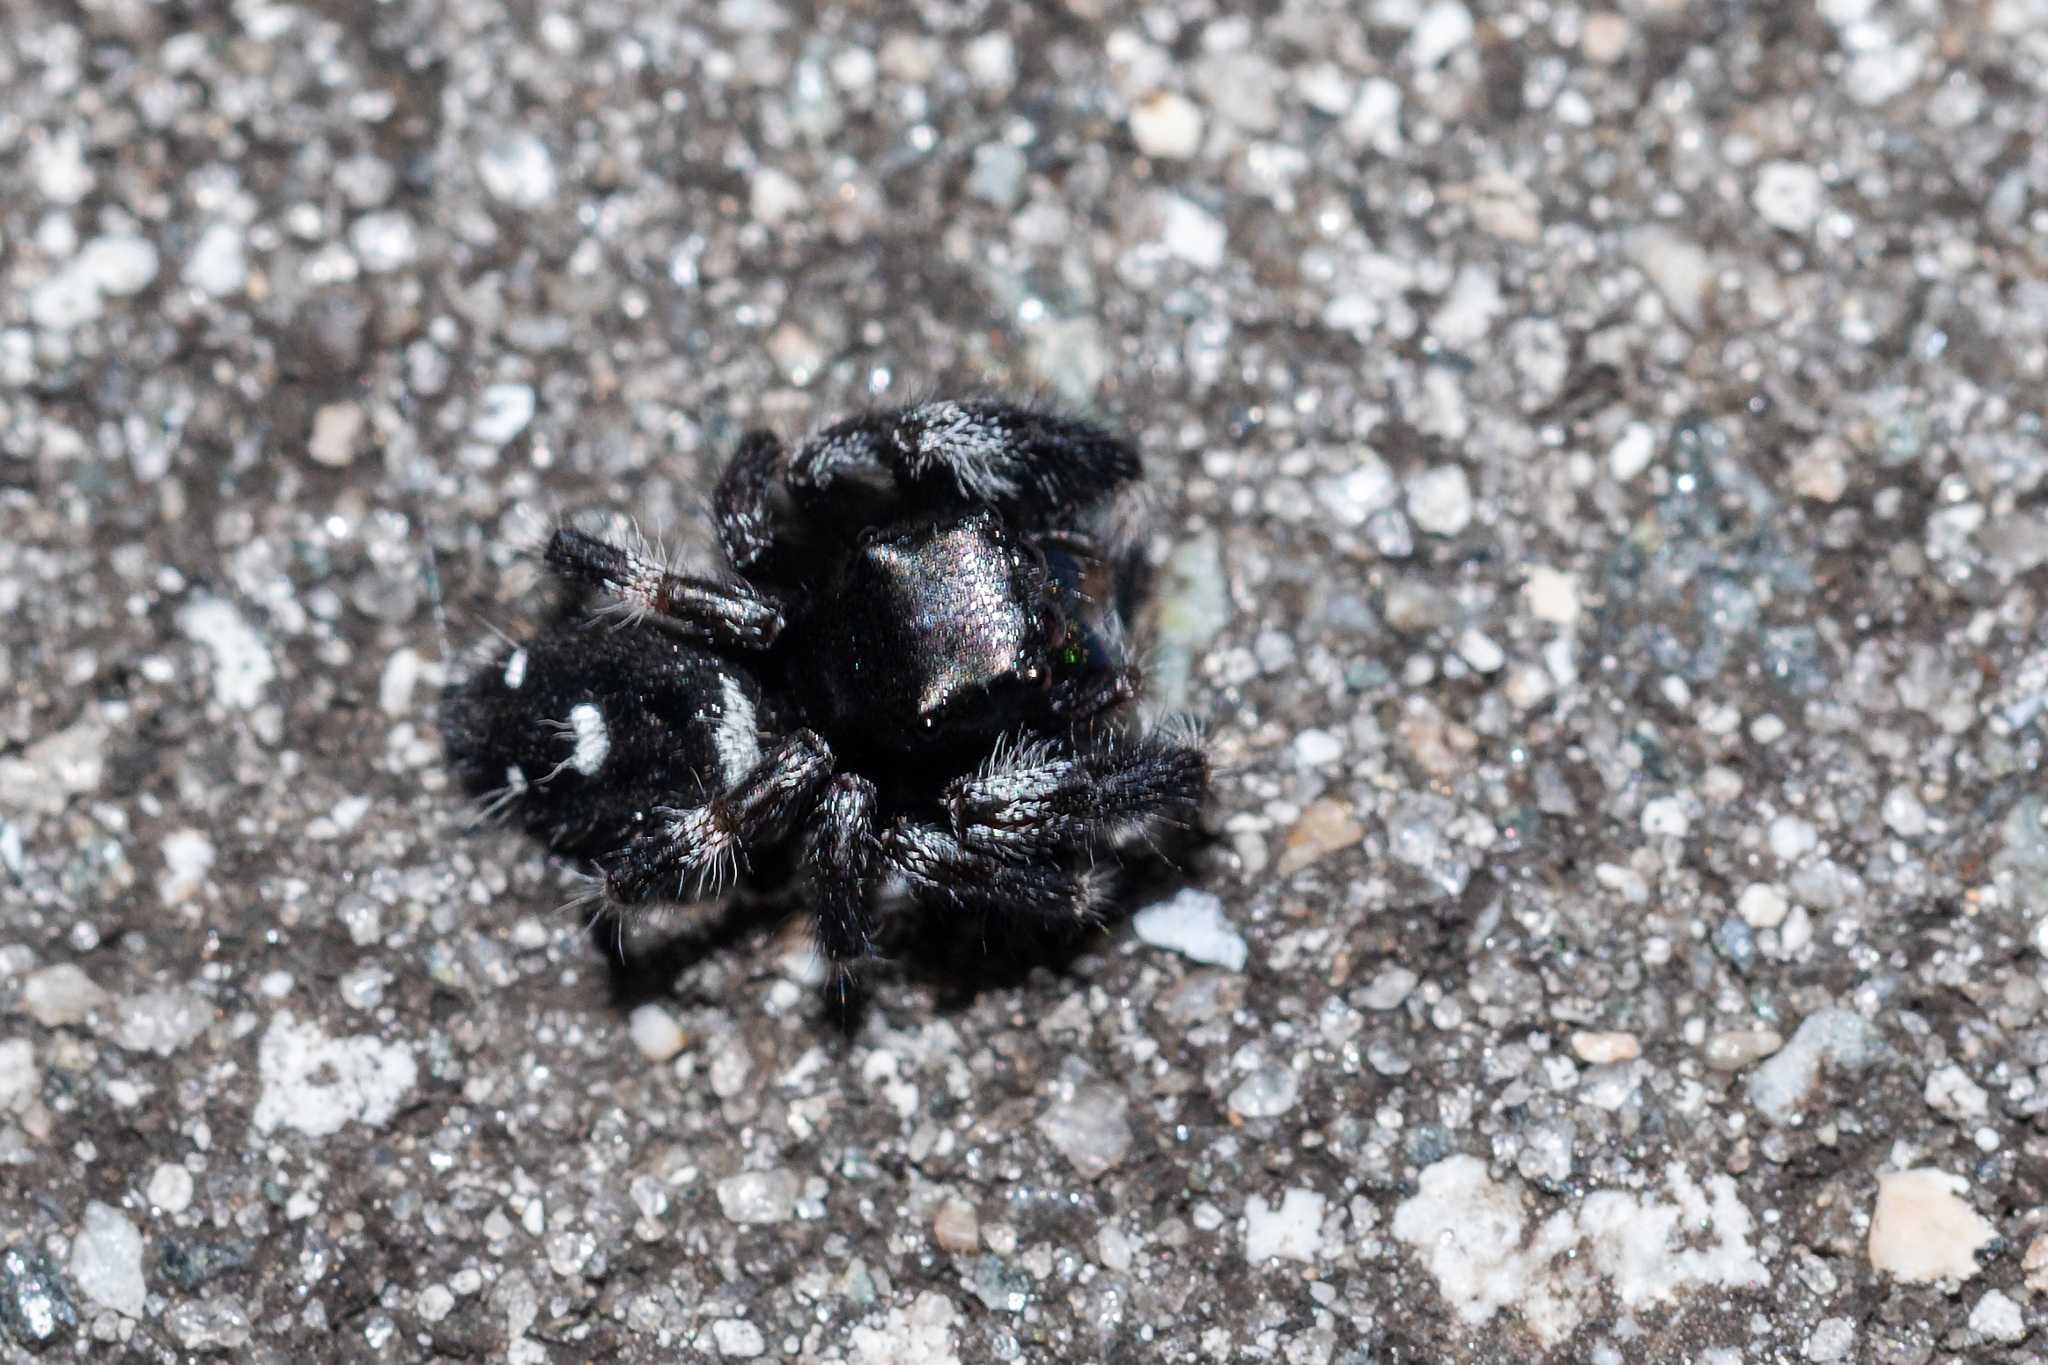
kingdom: Animalia
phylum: Arthropoda
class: Arachnida
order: Araneae
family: Salticidae
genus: Phidippus
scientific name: Phidippus regius
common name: Regal jumper
